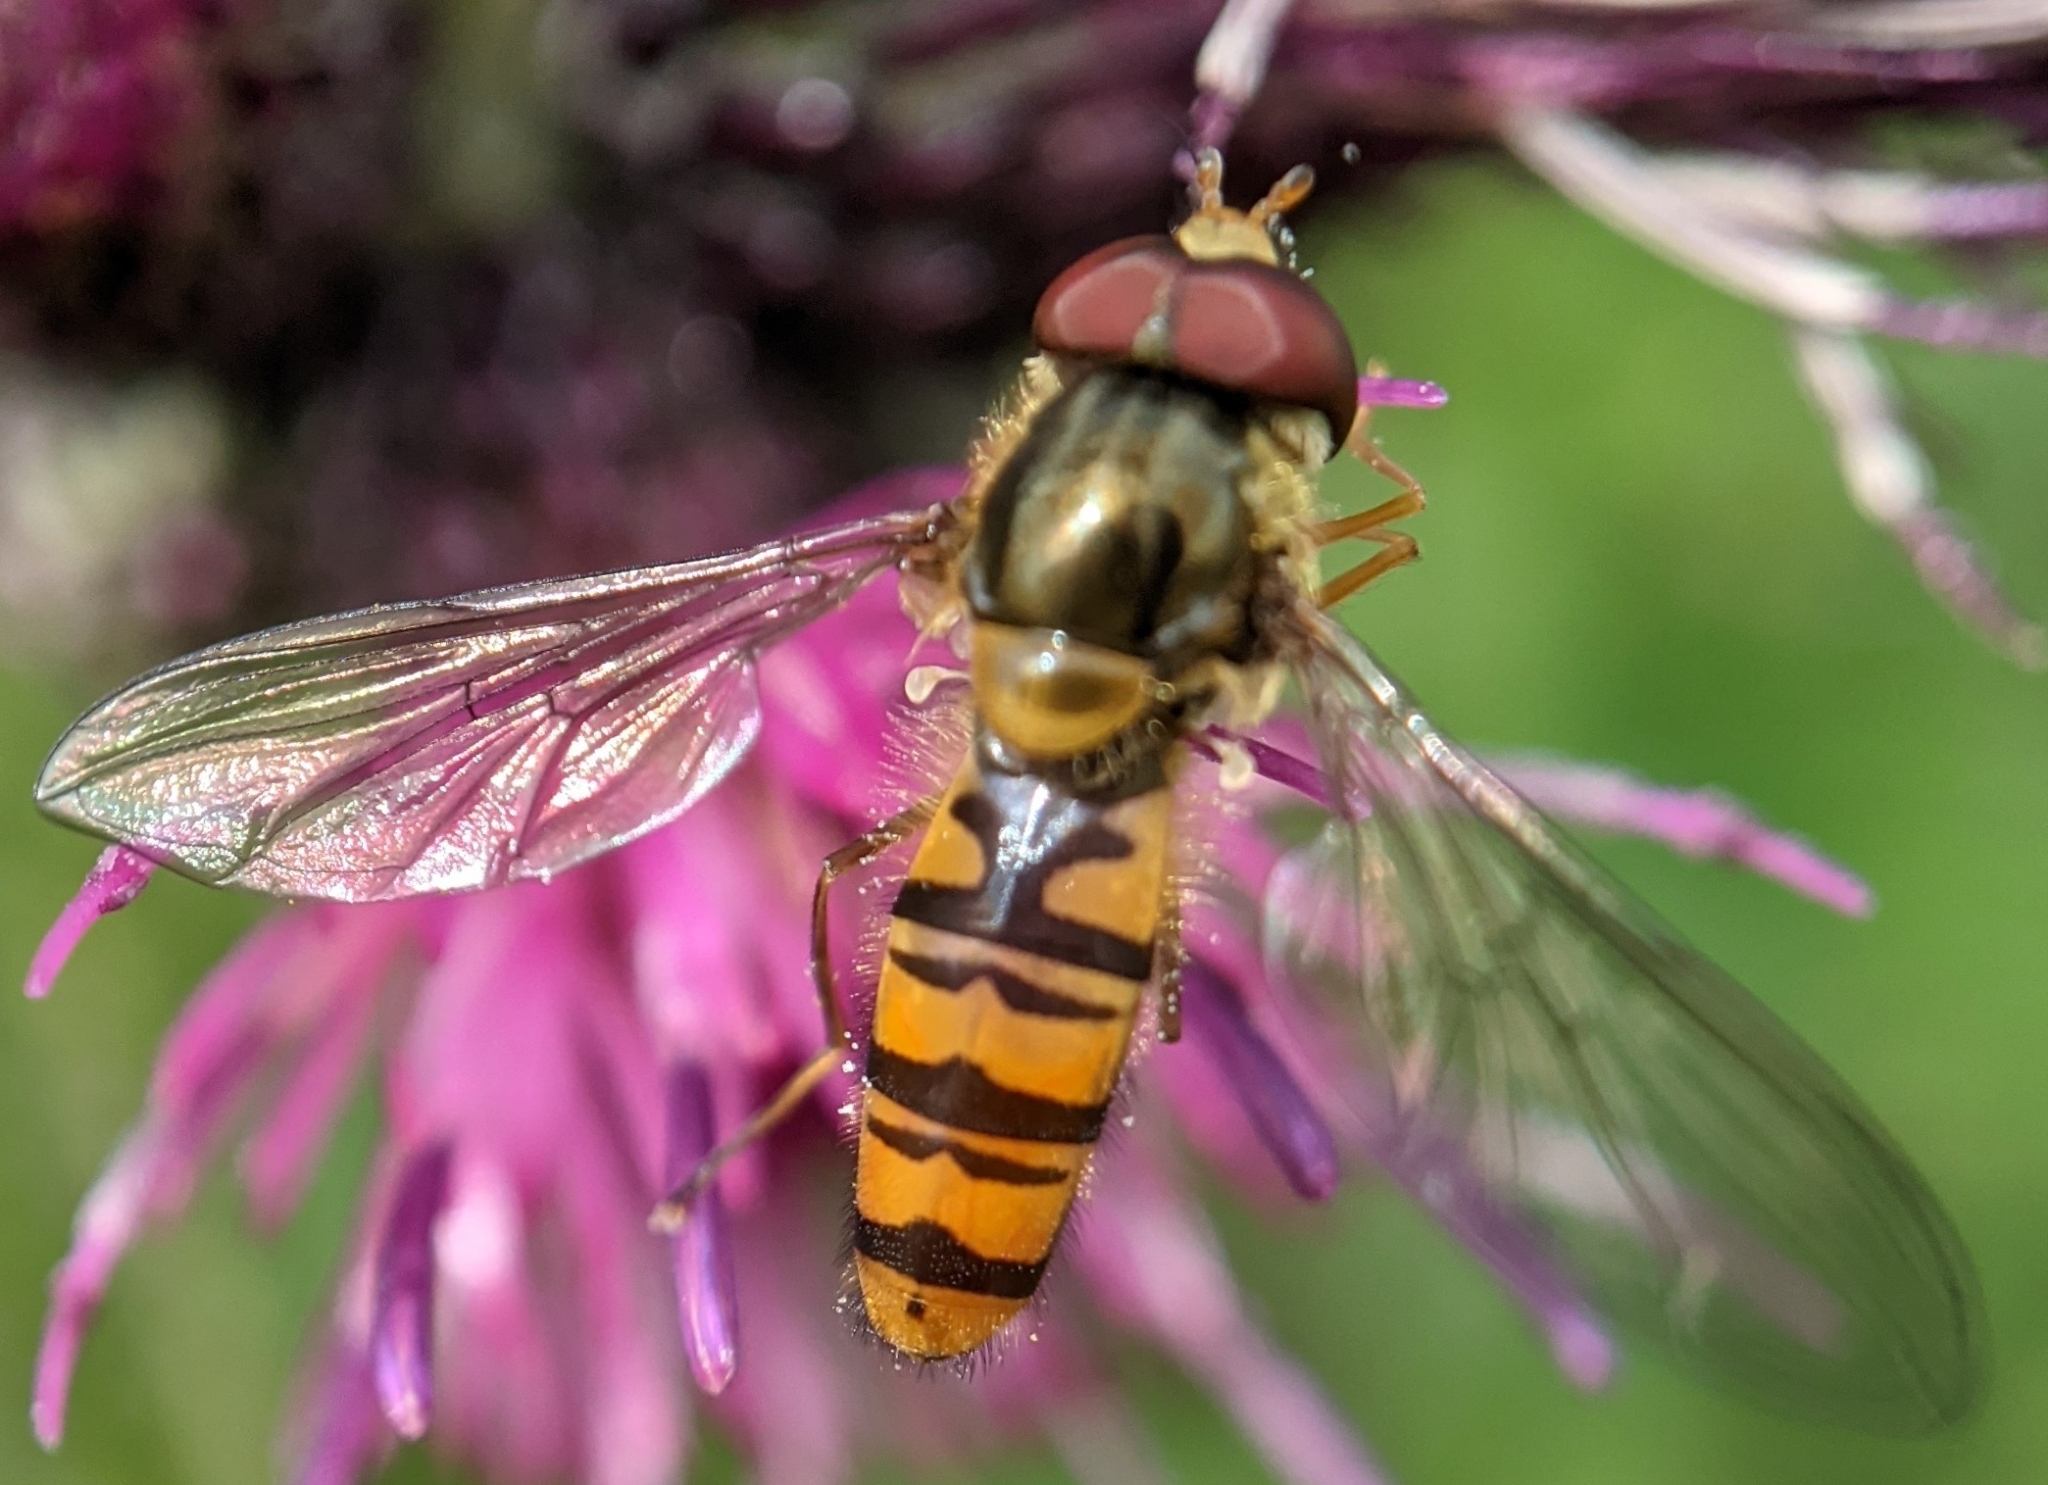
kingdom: Animalia
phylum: Arthropoda
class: Insecta
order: Diptera
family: Syrphidae
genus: Episyrphus
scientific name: Episyrphus balteatus
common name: Marmalade hoverfly
